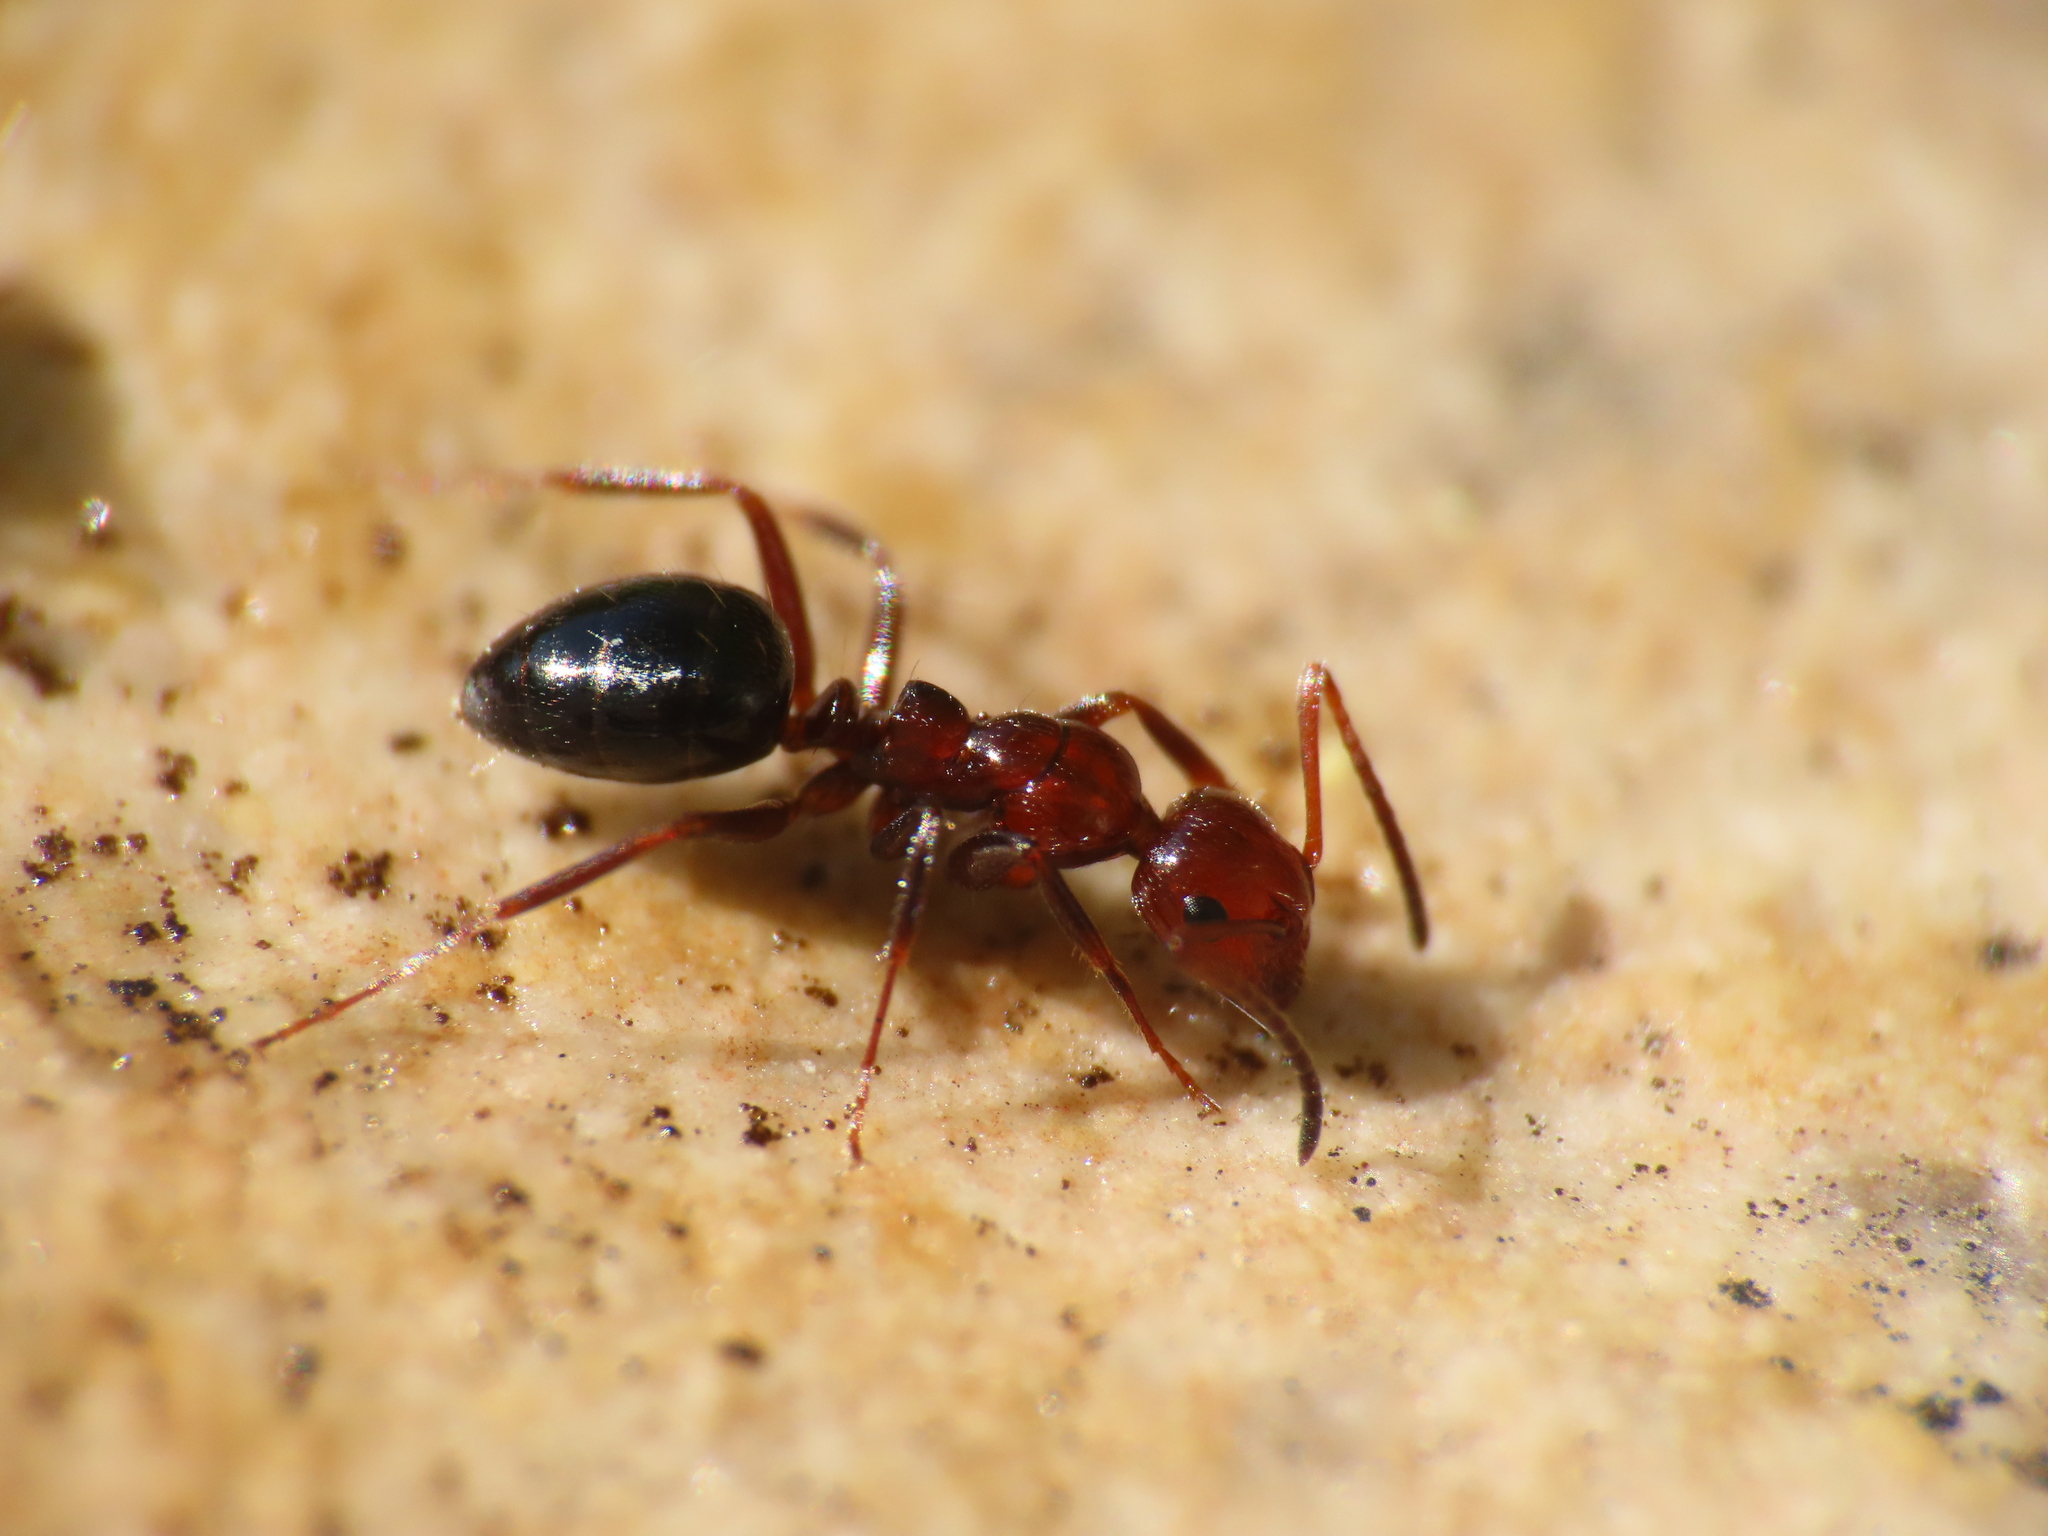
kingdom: Animalia
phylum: Arthropoda
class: Insecta
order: Hymenoptera
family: Formicidae
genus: Camponotus
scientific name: Camponotus lateralis
